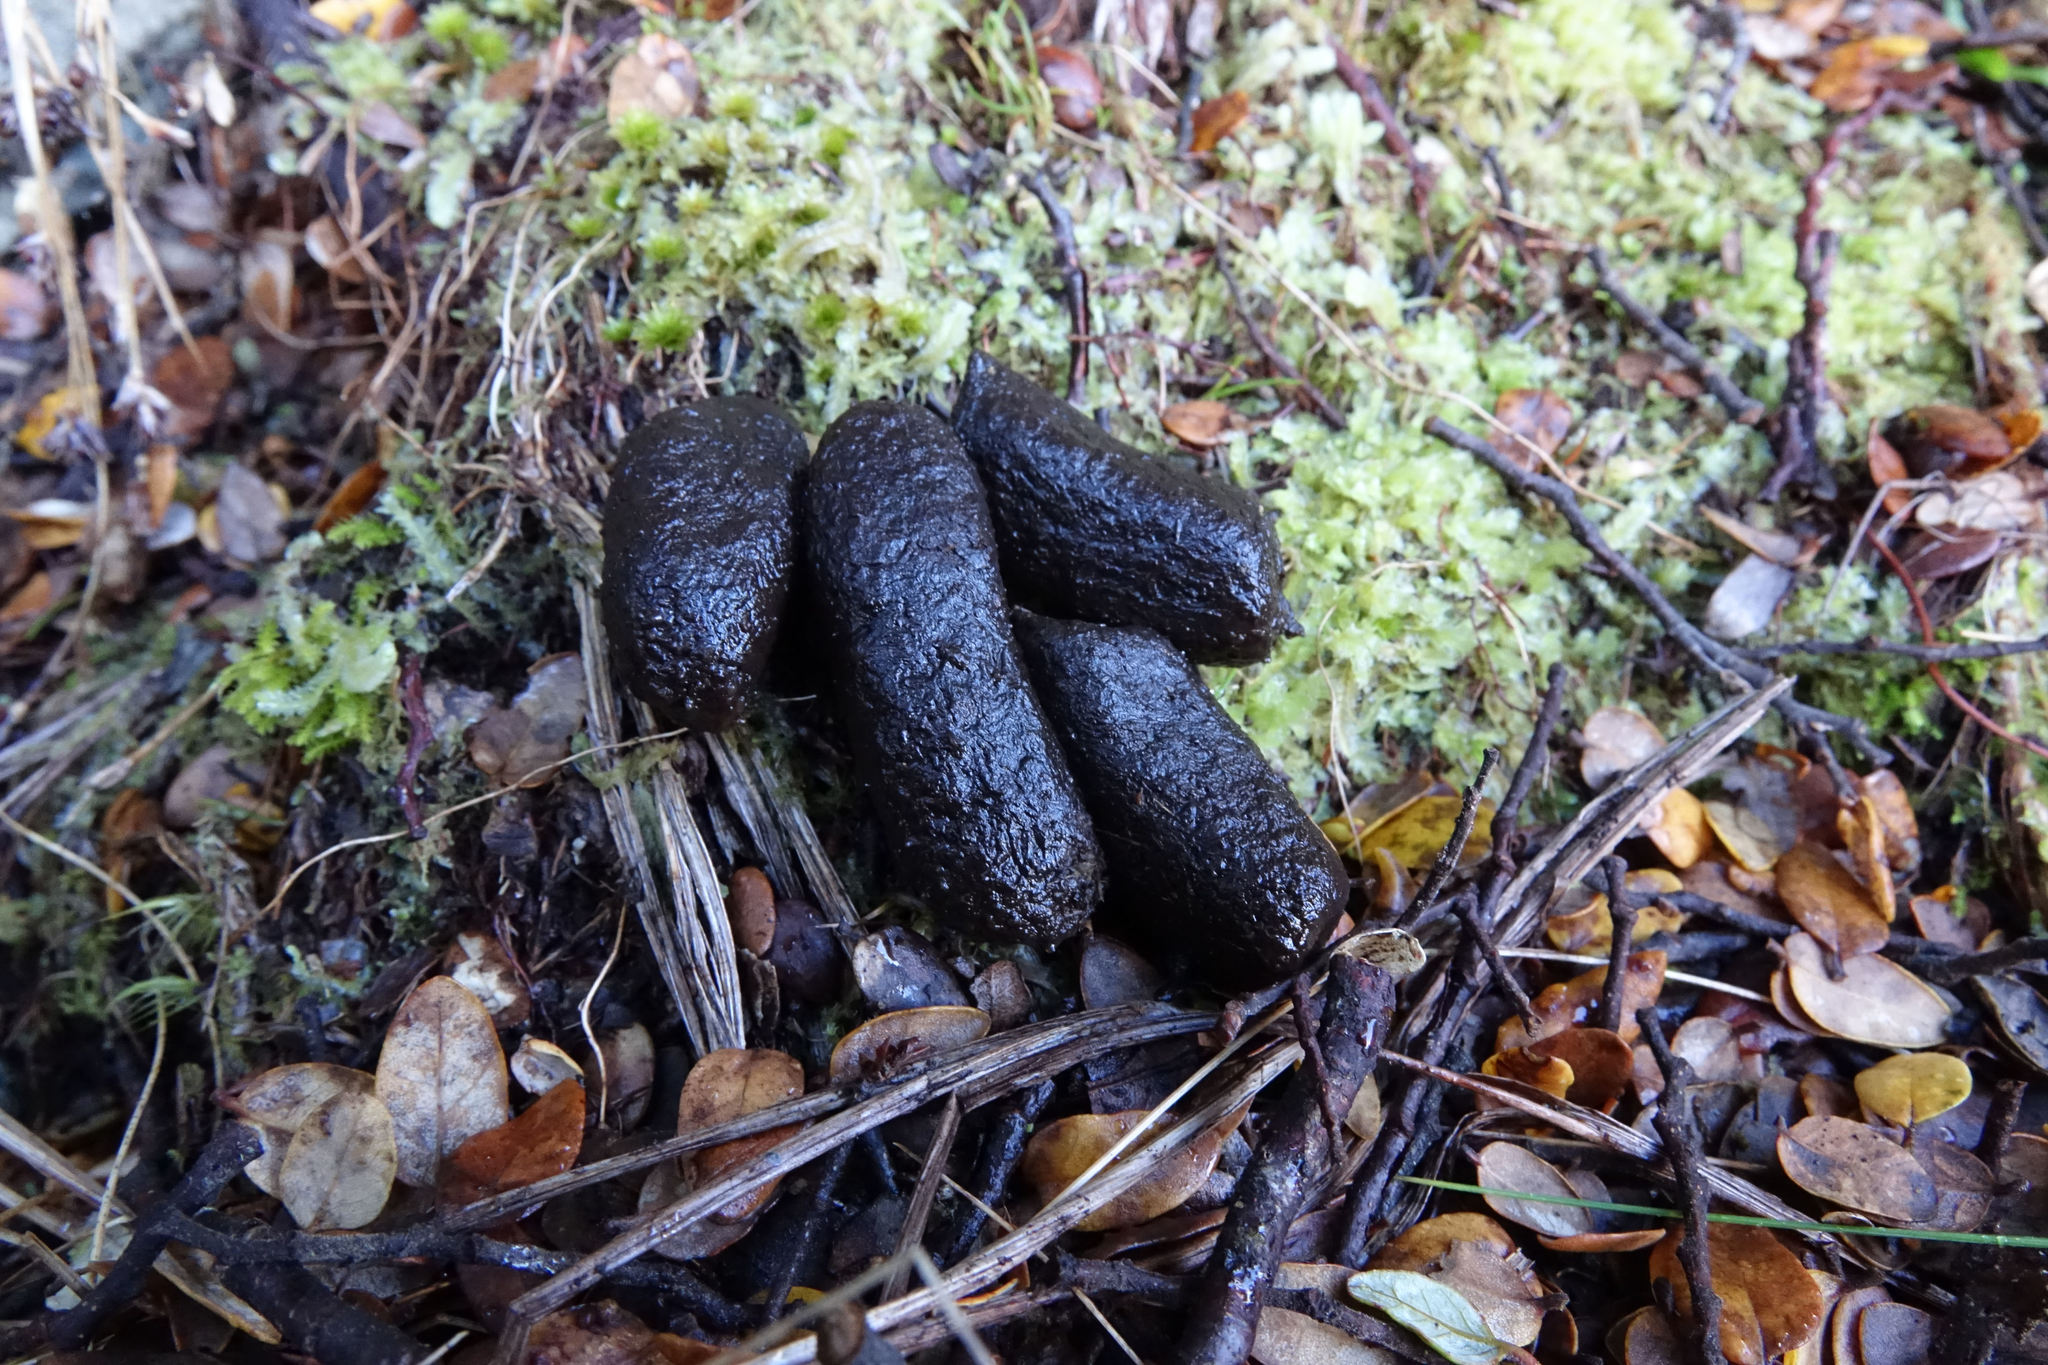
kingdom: Animalia
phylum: Chordata
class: Mammalia
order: Diprotodontia
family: Phalangeridae
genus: Trichosurus
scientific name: Trichosurus vulpecula
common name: Common brushtail
